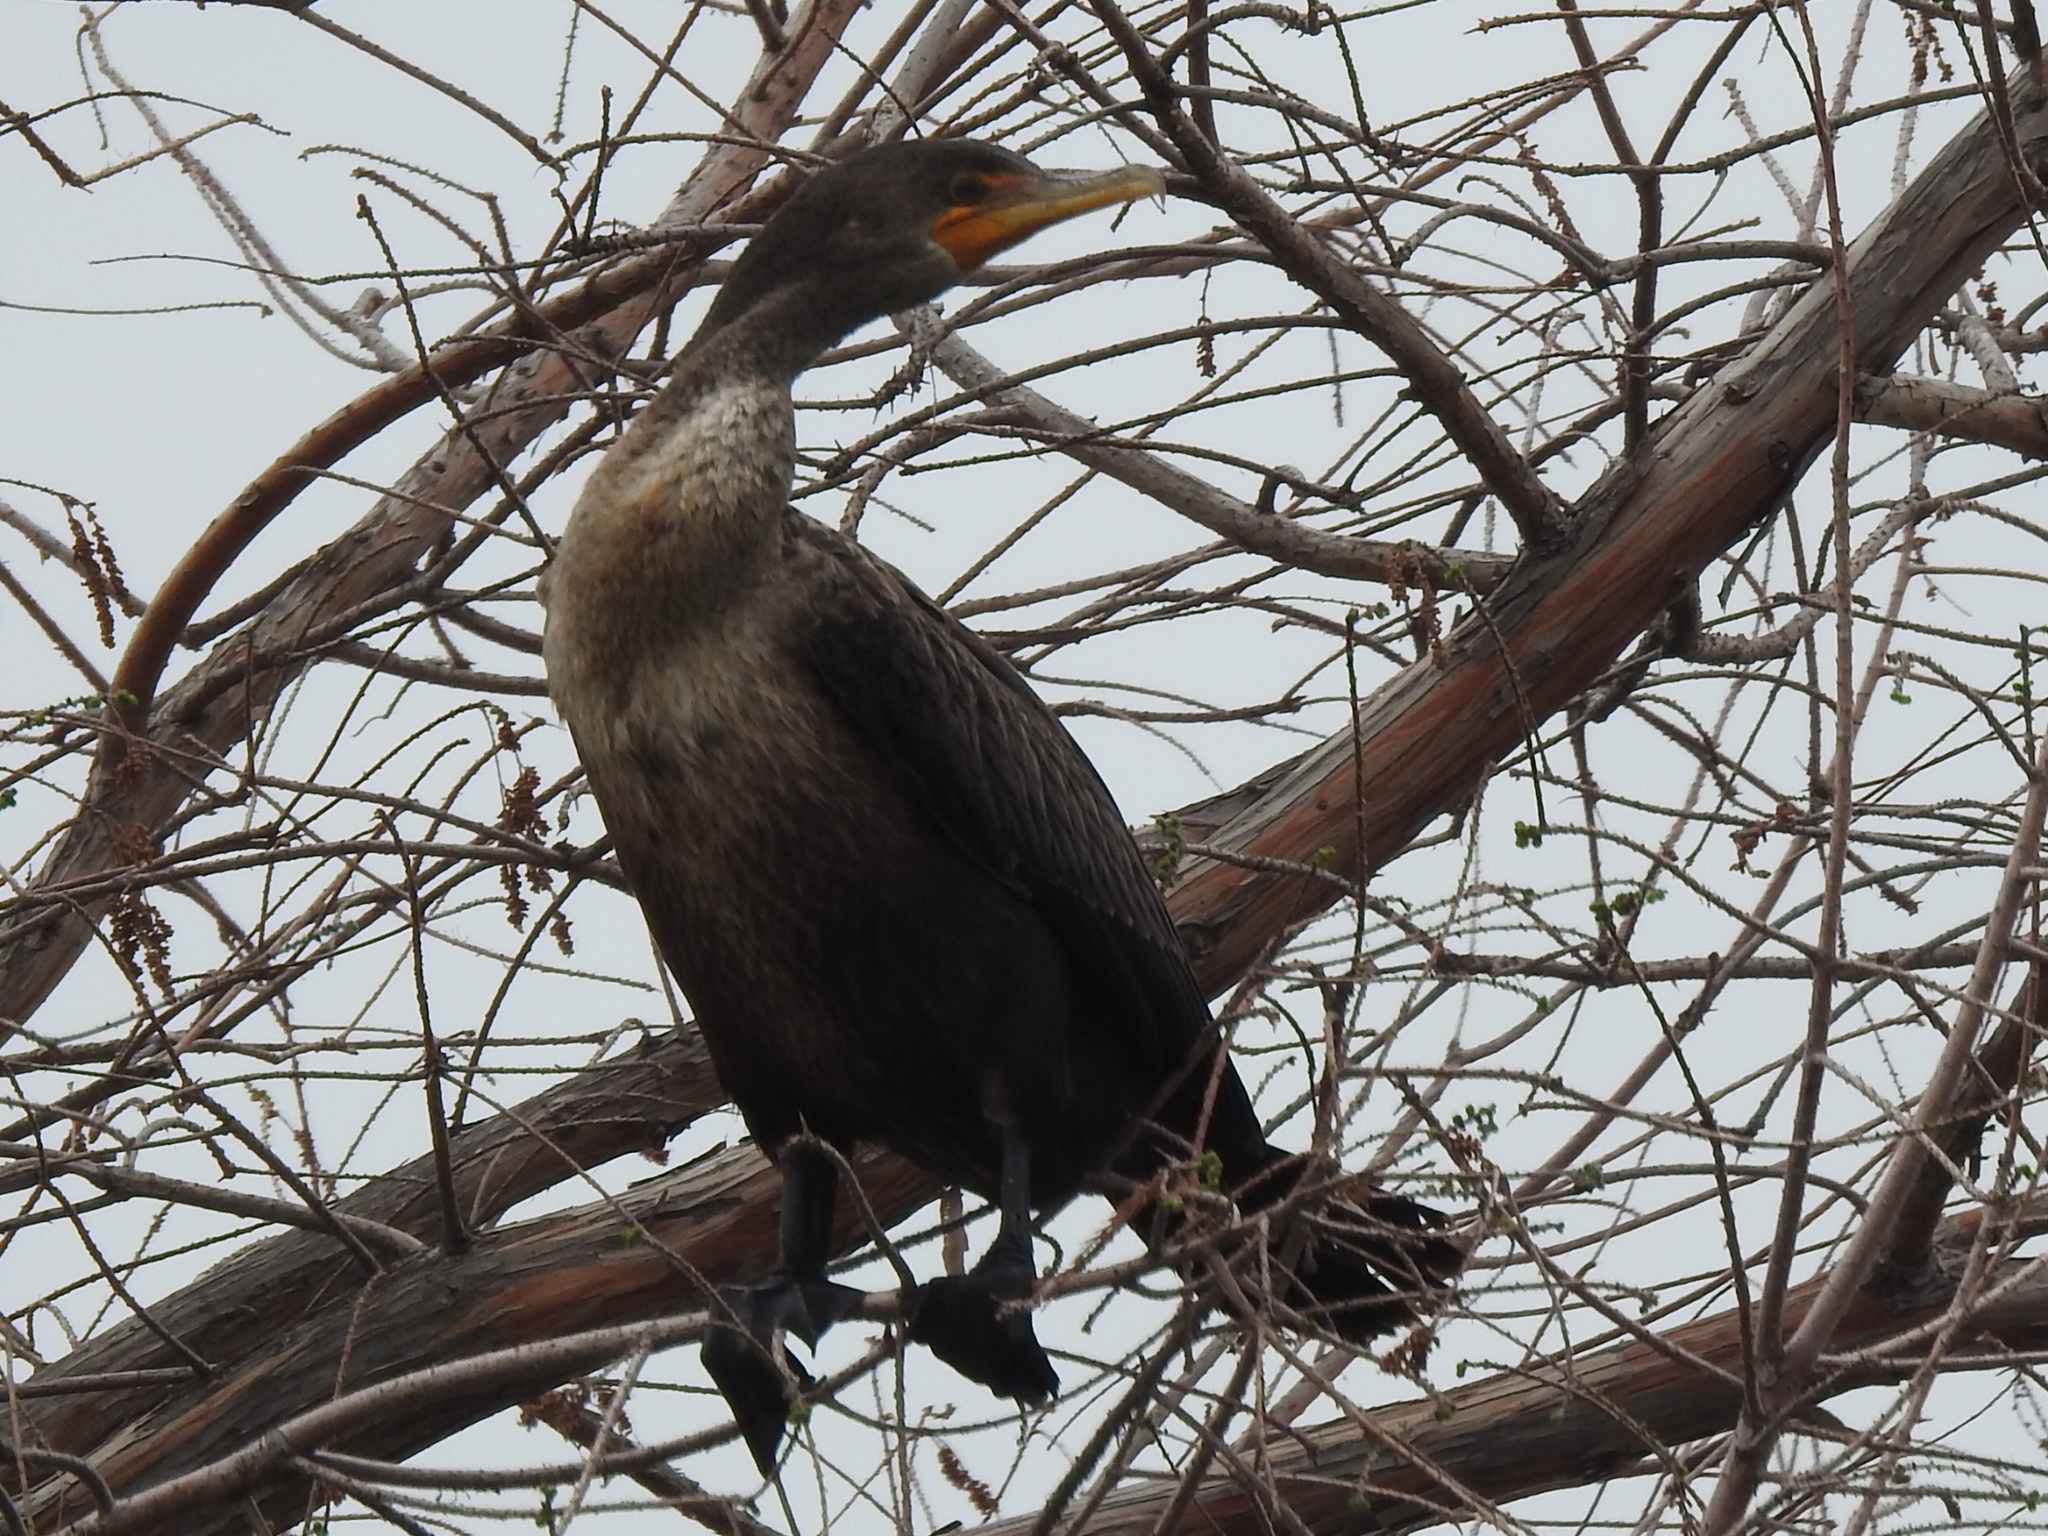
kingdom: Animalia
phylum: Chordata
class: Aves
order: Suliformes
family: Phalacrocoracidae
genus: Phalacrocorax
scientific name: Phalacrocorax auritus
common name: Double-crested cormorant
